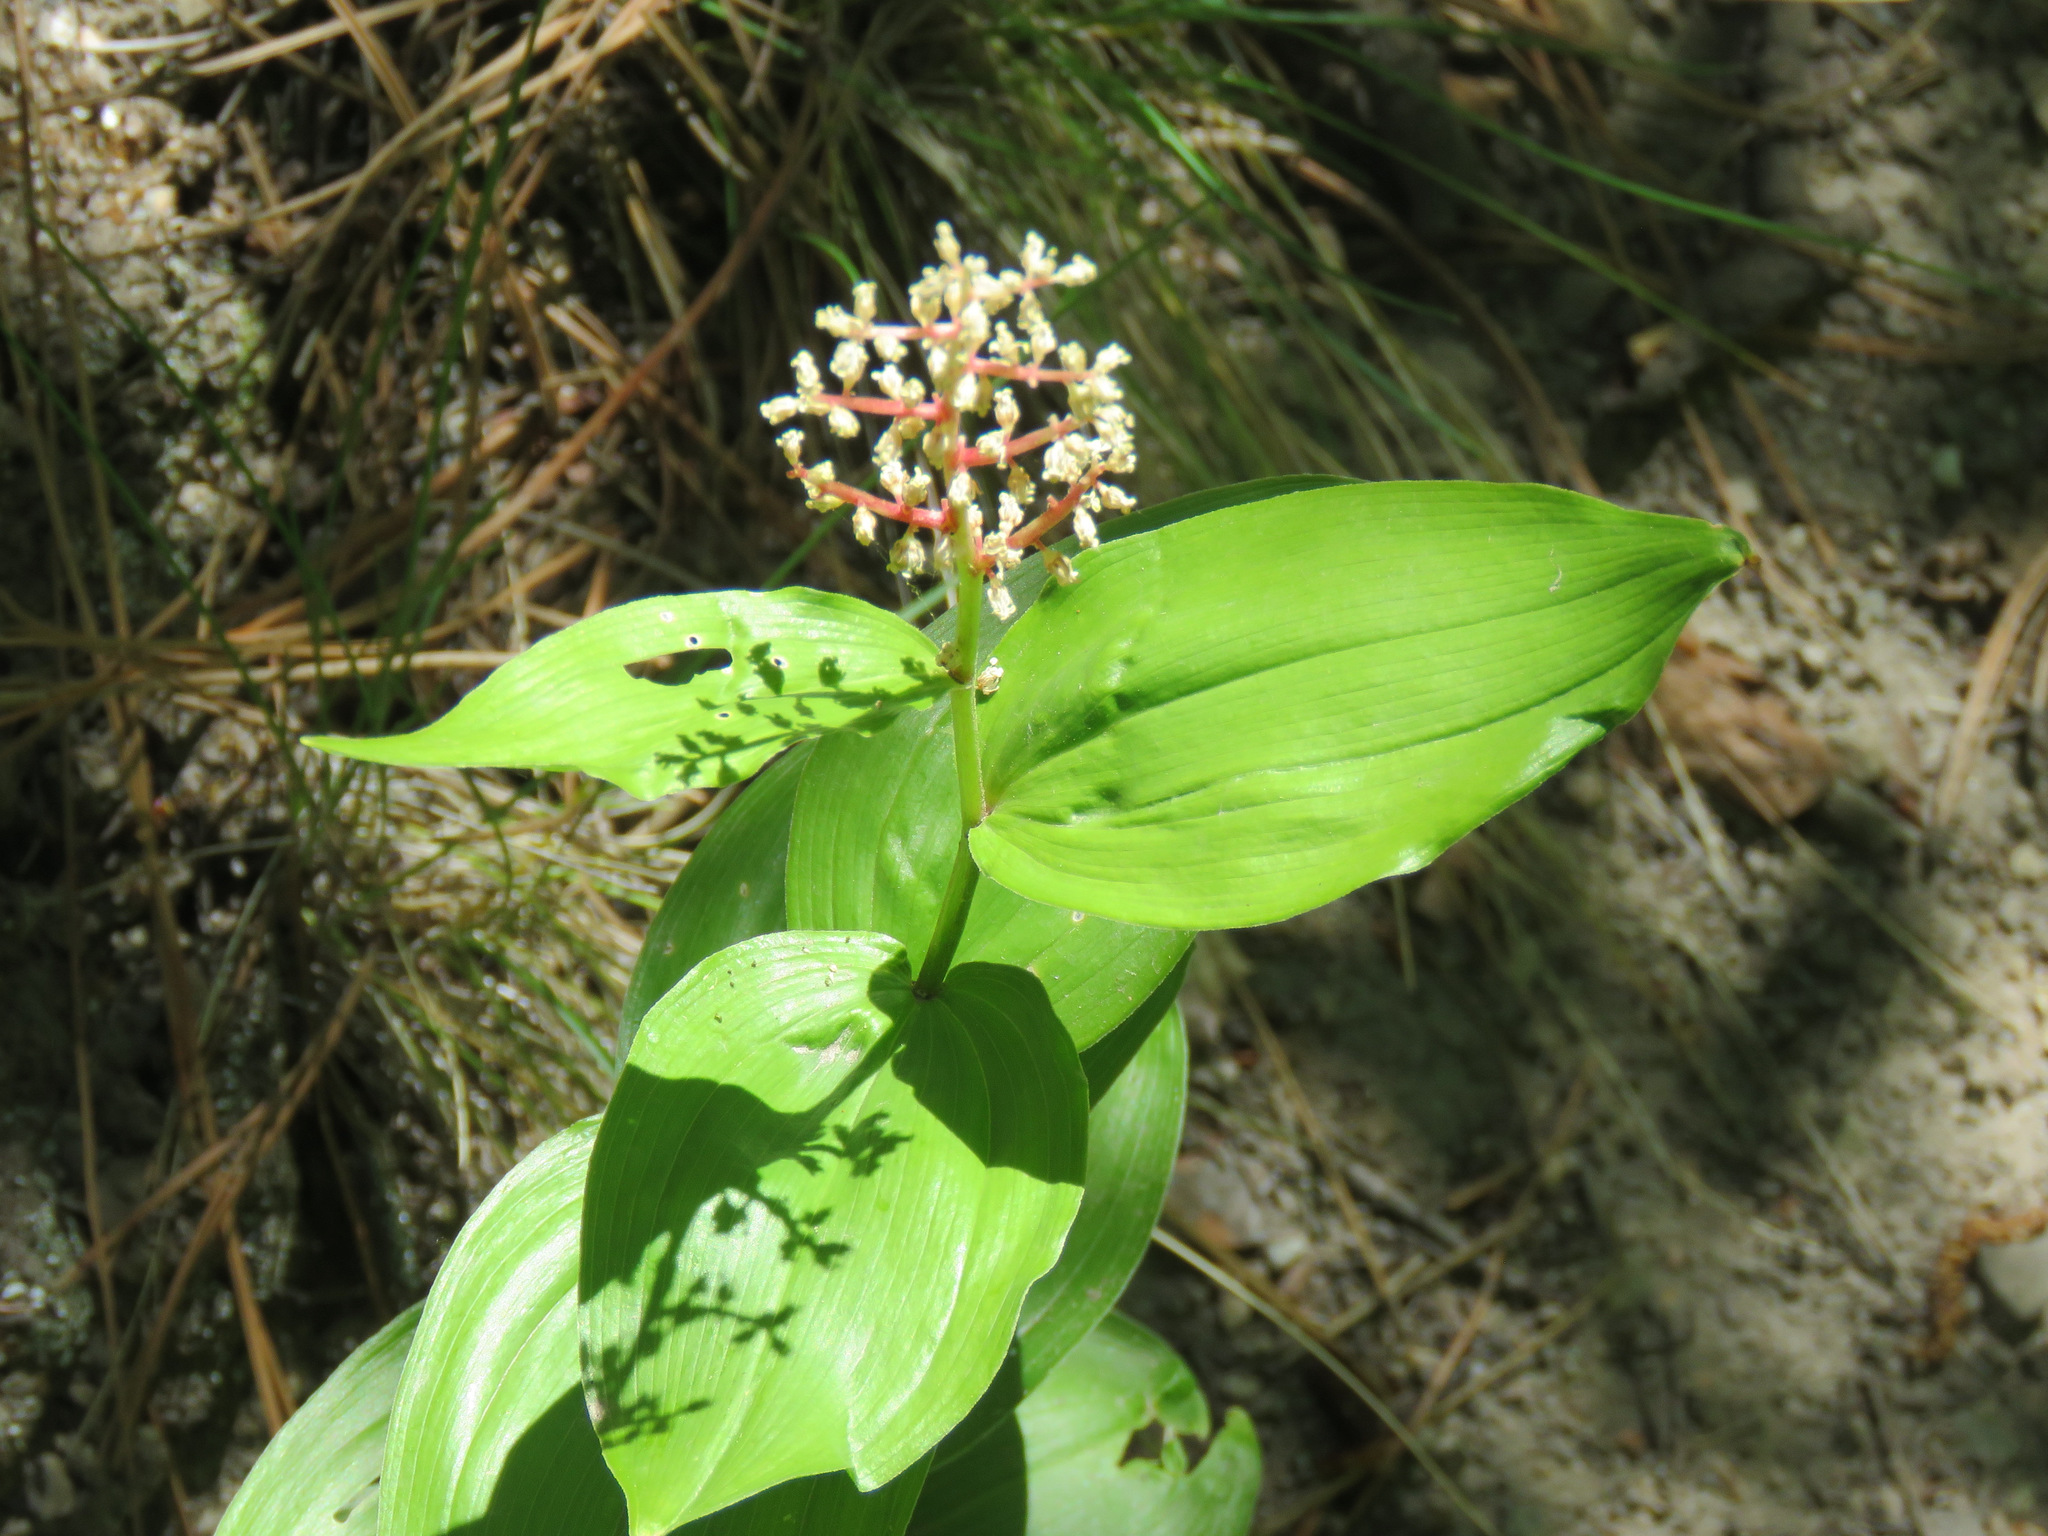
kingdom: Plantae
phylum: Tracheophyta
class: Liliopsida
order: Asparagales
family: Asparagaceae
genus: Maianthemum
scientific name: Maianthemum racemosum
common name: False spikenard
